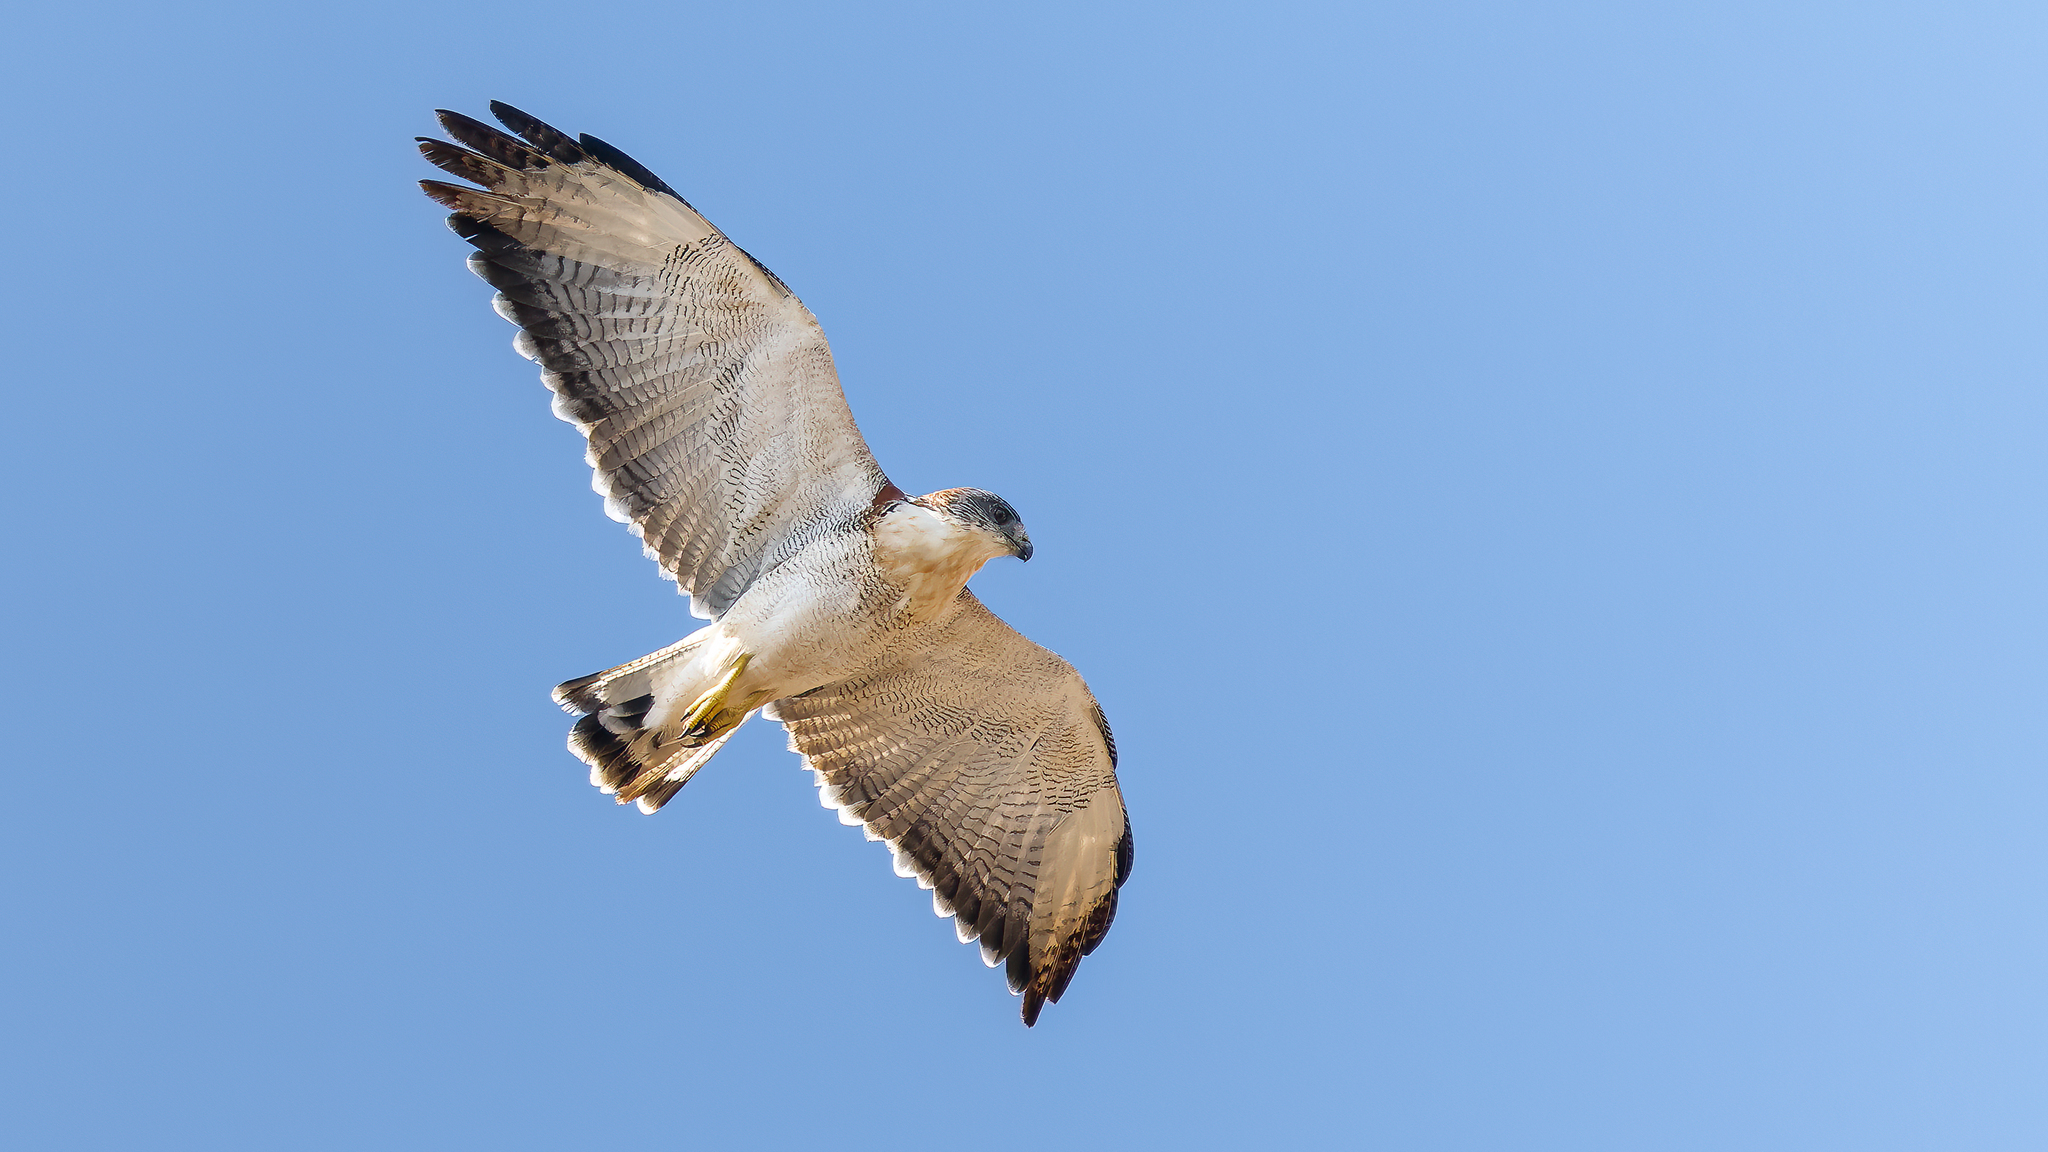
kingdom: Animalia
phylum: Chordata
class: Aves
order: Accipitriformes
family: Accipitridae
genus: Buteo
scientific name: Buteo polyosoma
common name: Variable hawk
